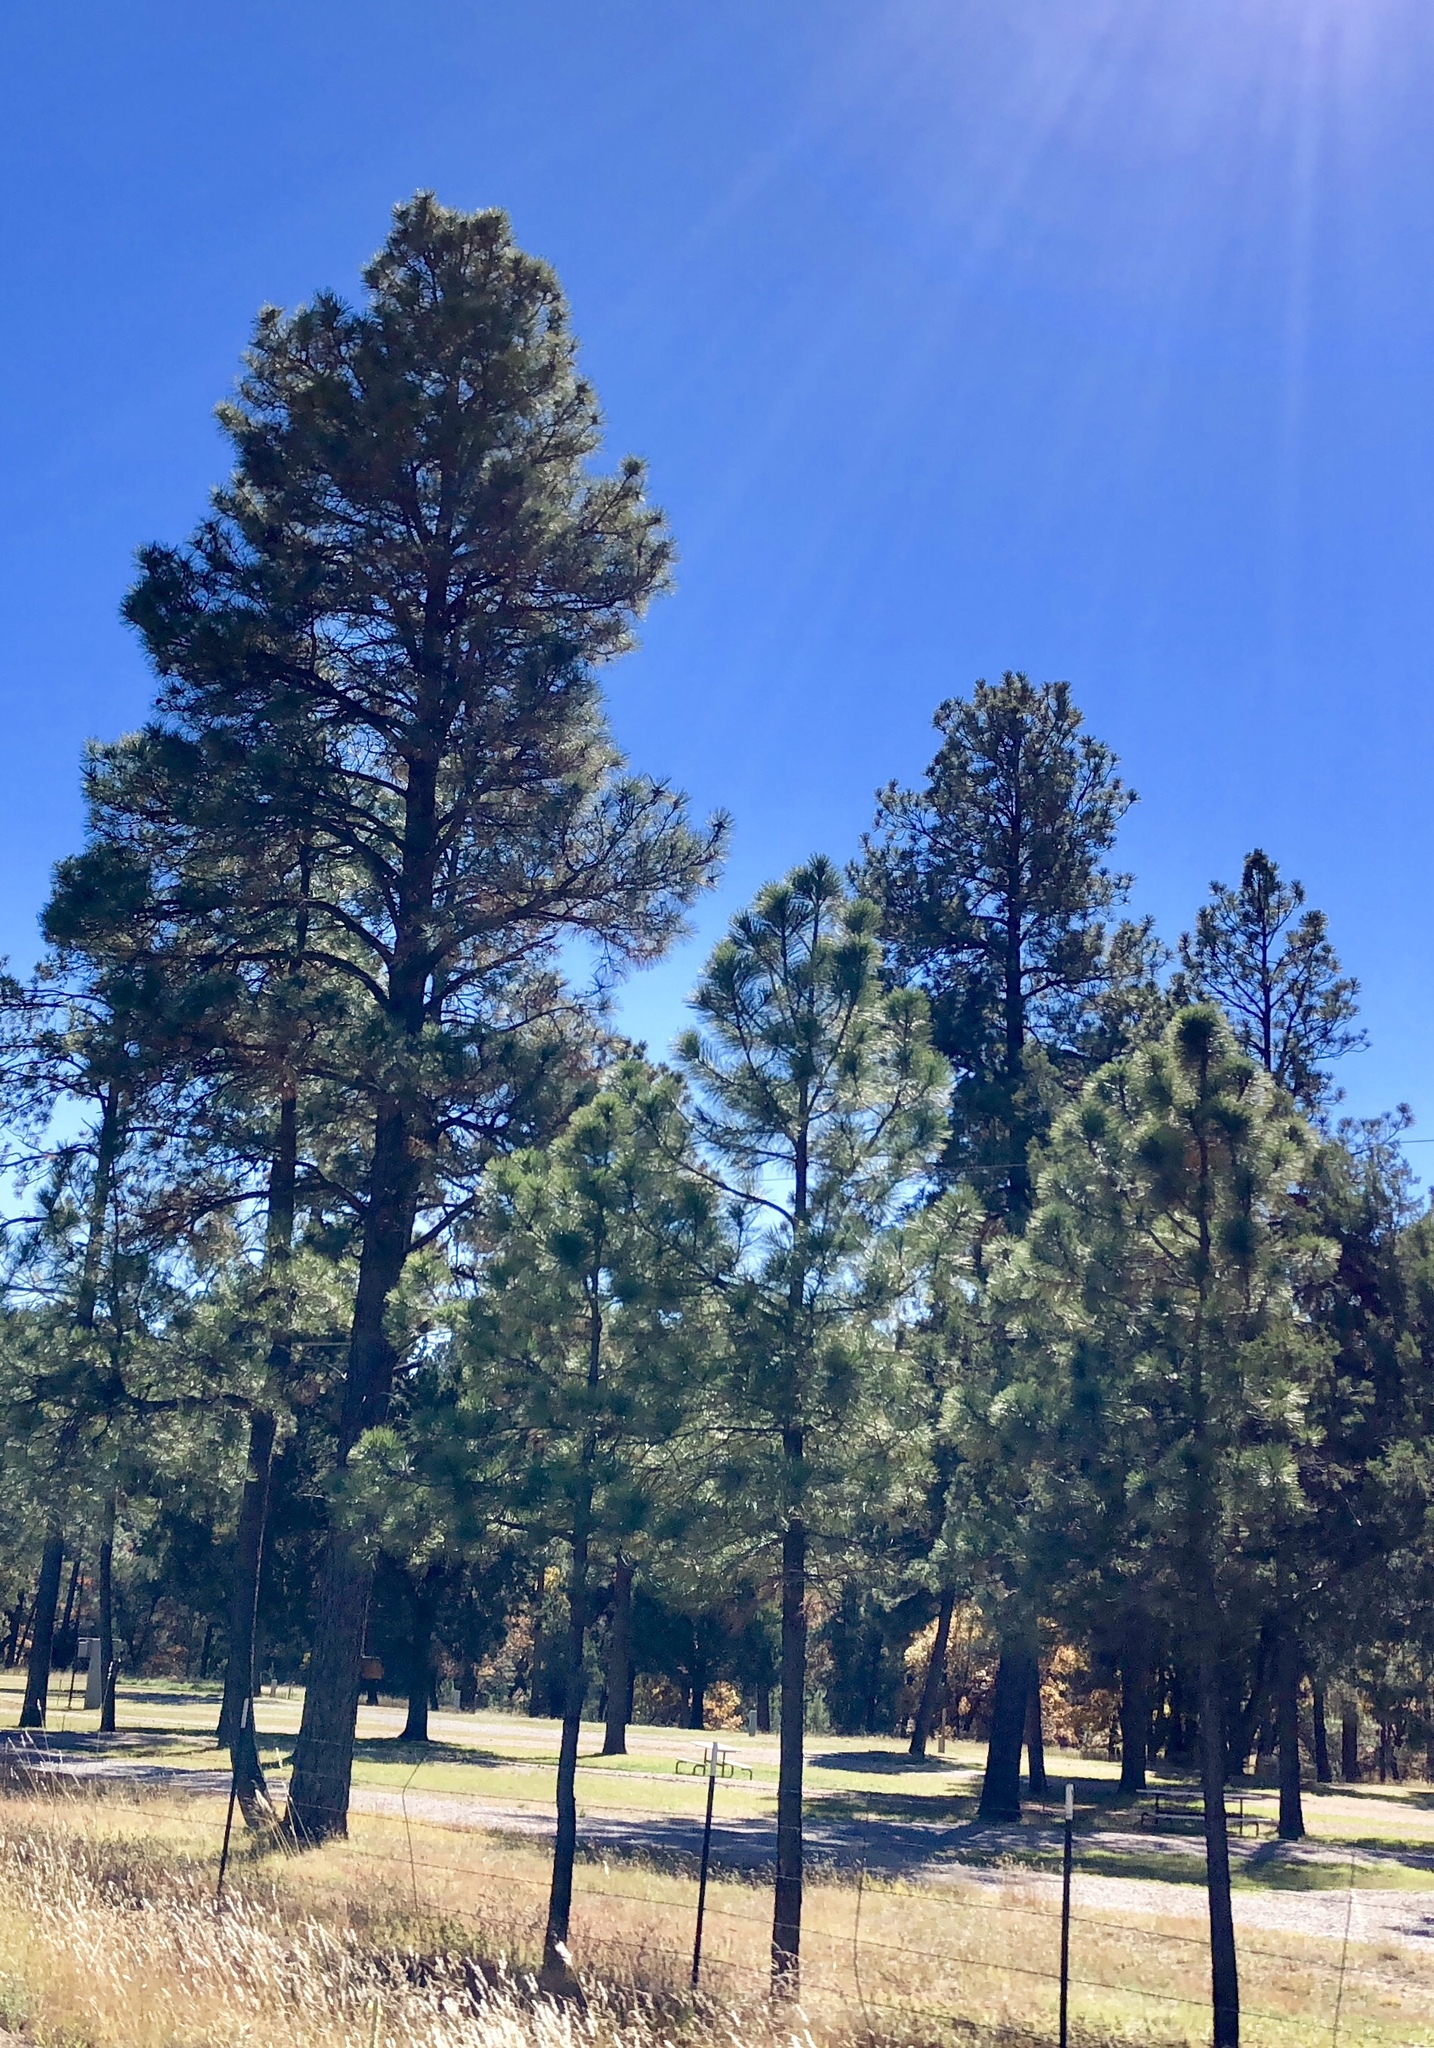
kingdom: Plantae
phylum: Tracheophyta
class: Pinopsida
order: Pinales
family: Pinaceae
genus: Pinus
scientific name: Pinus ponderosa
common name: Western yellow-pine
